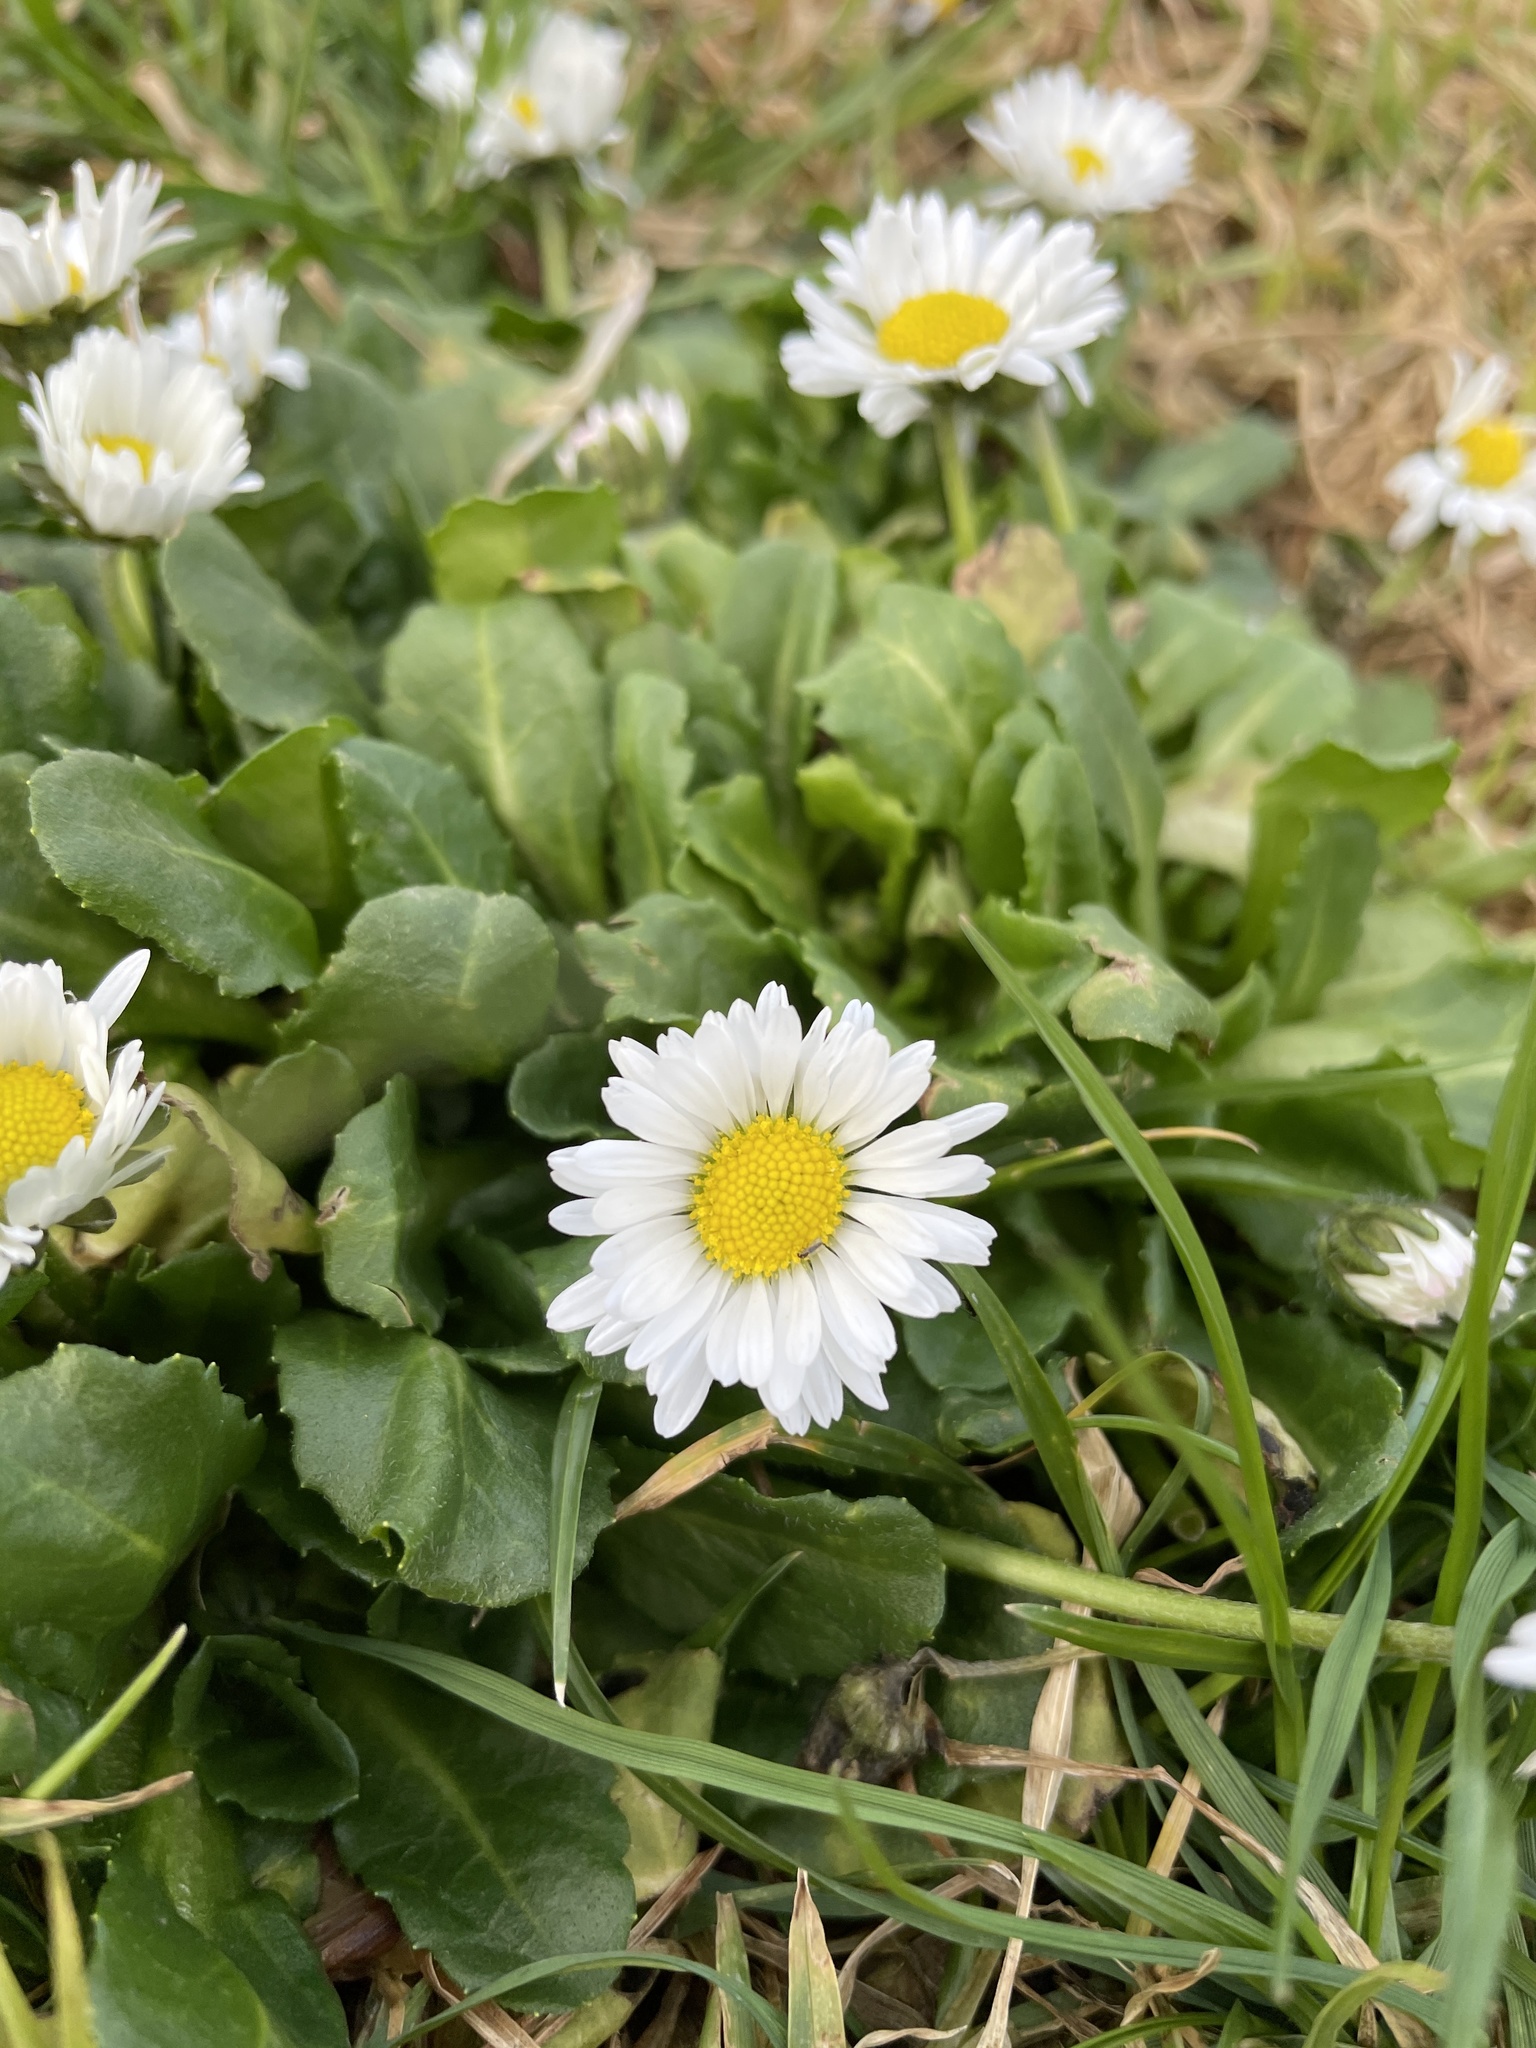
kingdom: Plantae
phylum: Tracheophyta
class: Magnoliopsida
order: Asterales
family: Asteraceae
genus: Bellis
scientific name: Bellis perennis
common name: Lawndaisy
